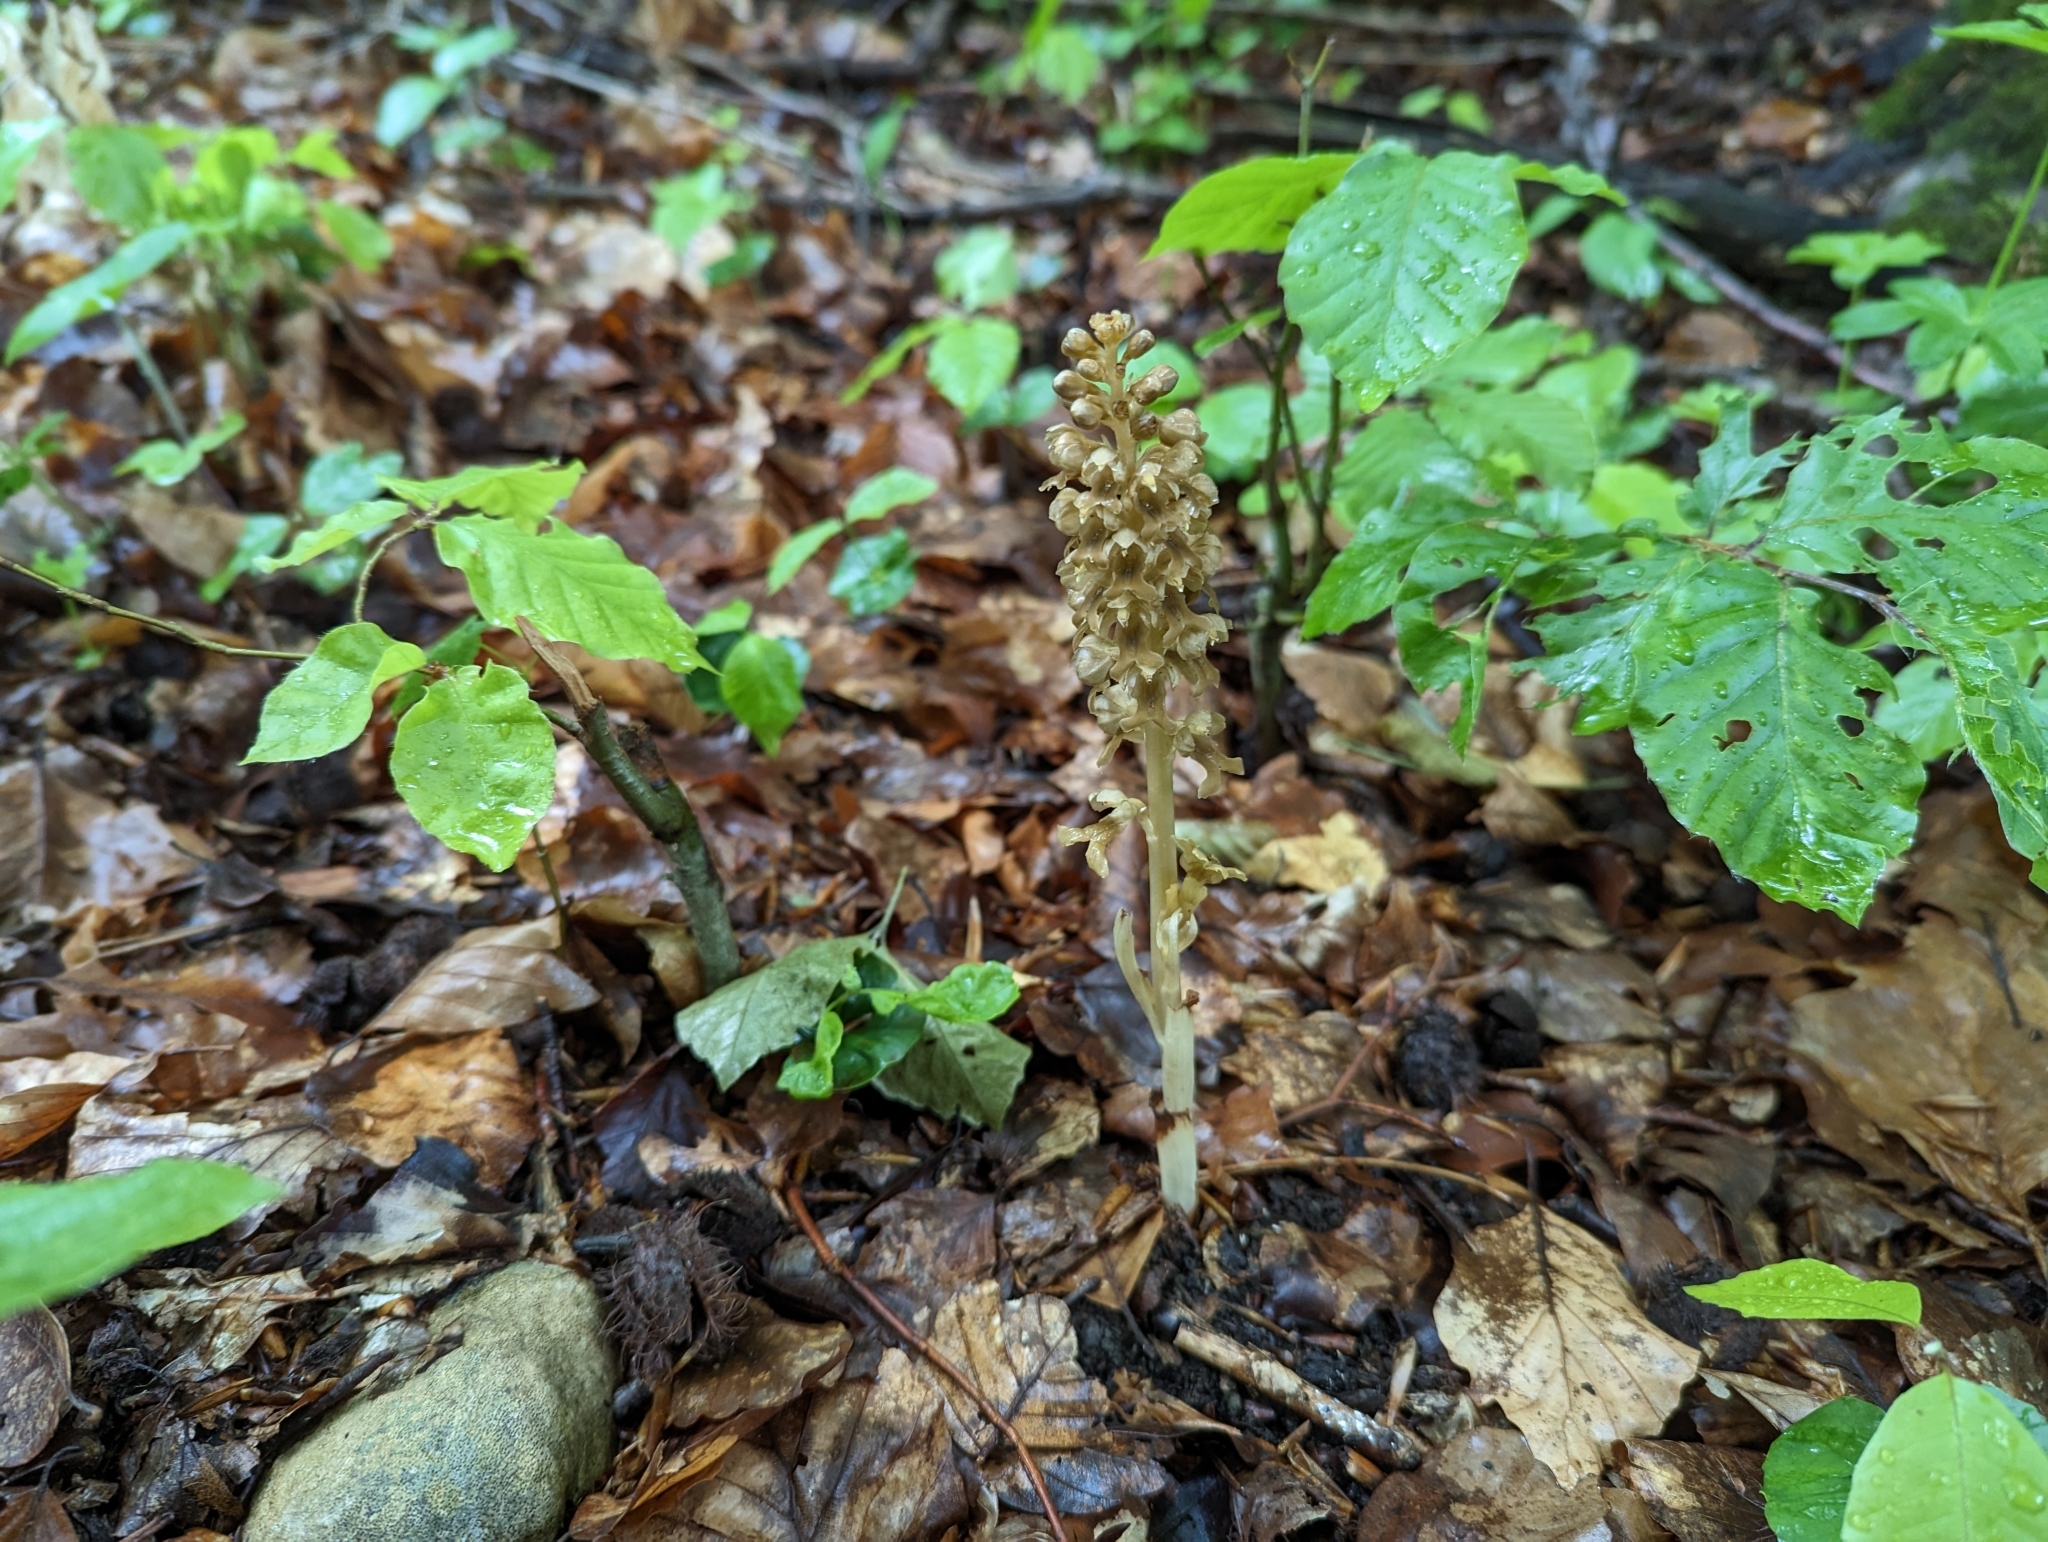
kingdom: Plantae
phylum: Tracheophyta
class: Liliopsida
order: Asparagales
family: Orchidaceae
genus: Neottia
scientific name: Neottia nidus-avis
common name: Bird's-nest orchid
